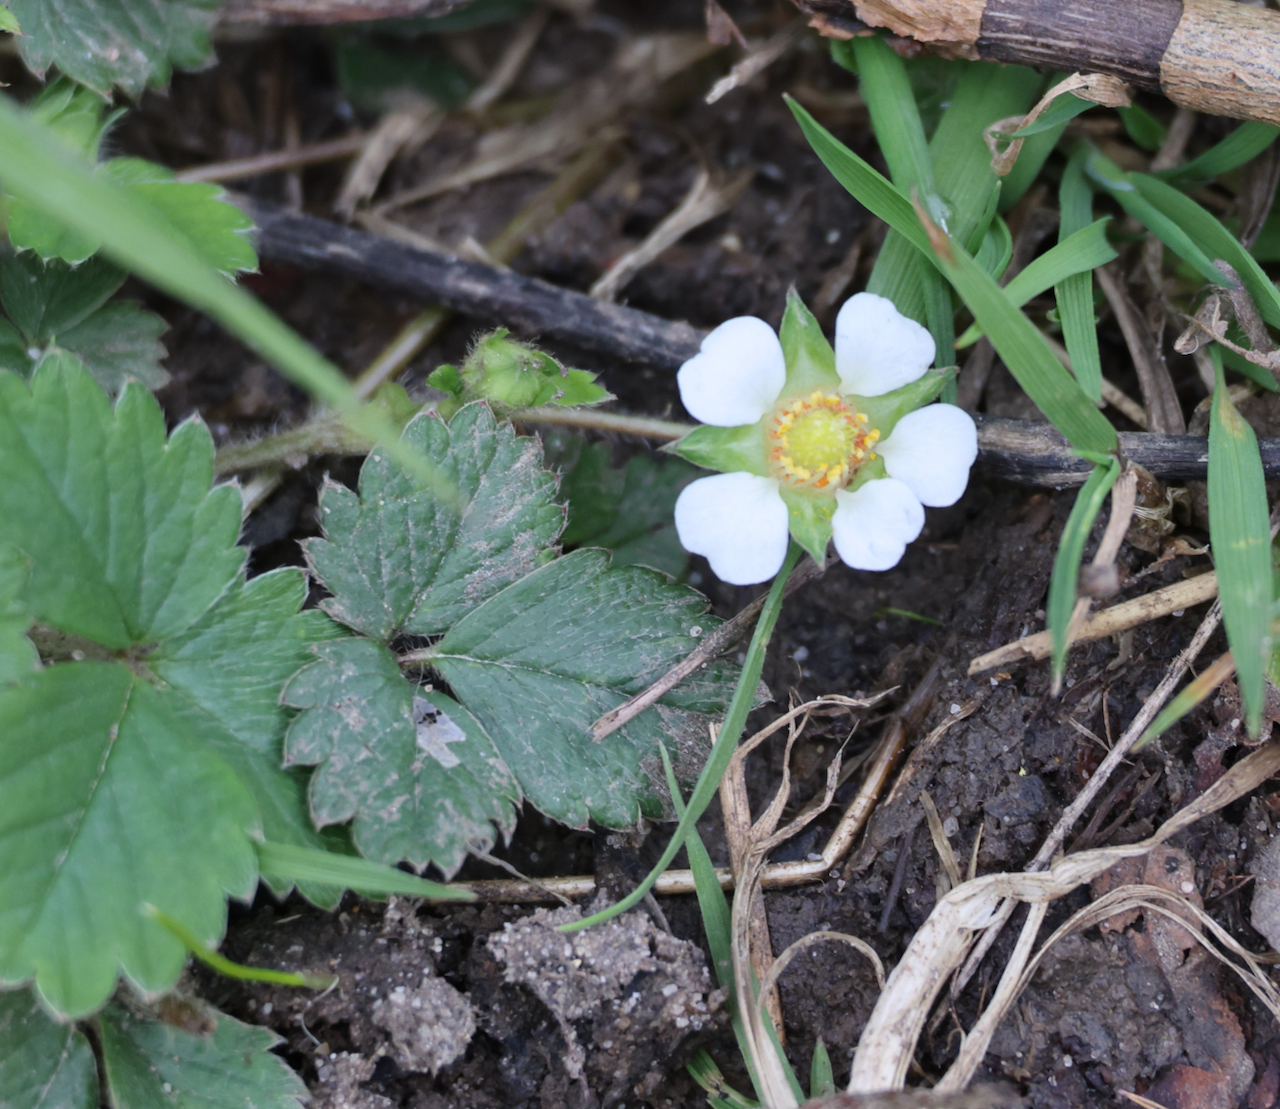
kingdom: Plantae
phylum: Tracheophyta
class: Magnoliopsida
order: Rosales
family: Rosaceae
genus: Potentilla
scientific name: Potentilla sterilis
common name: Barren strawberry
